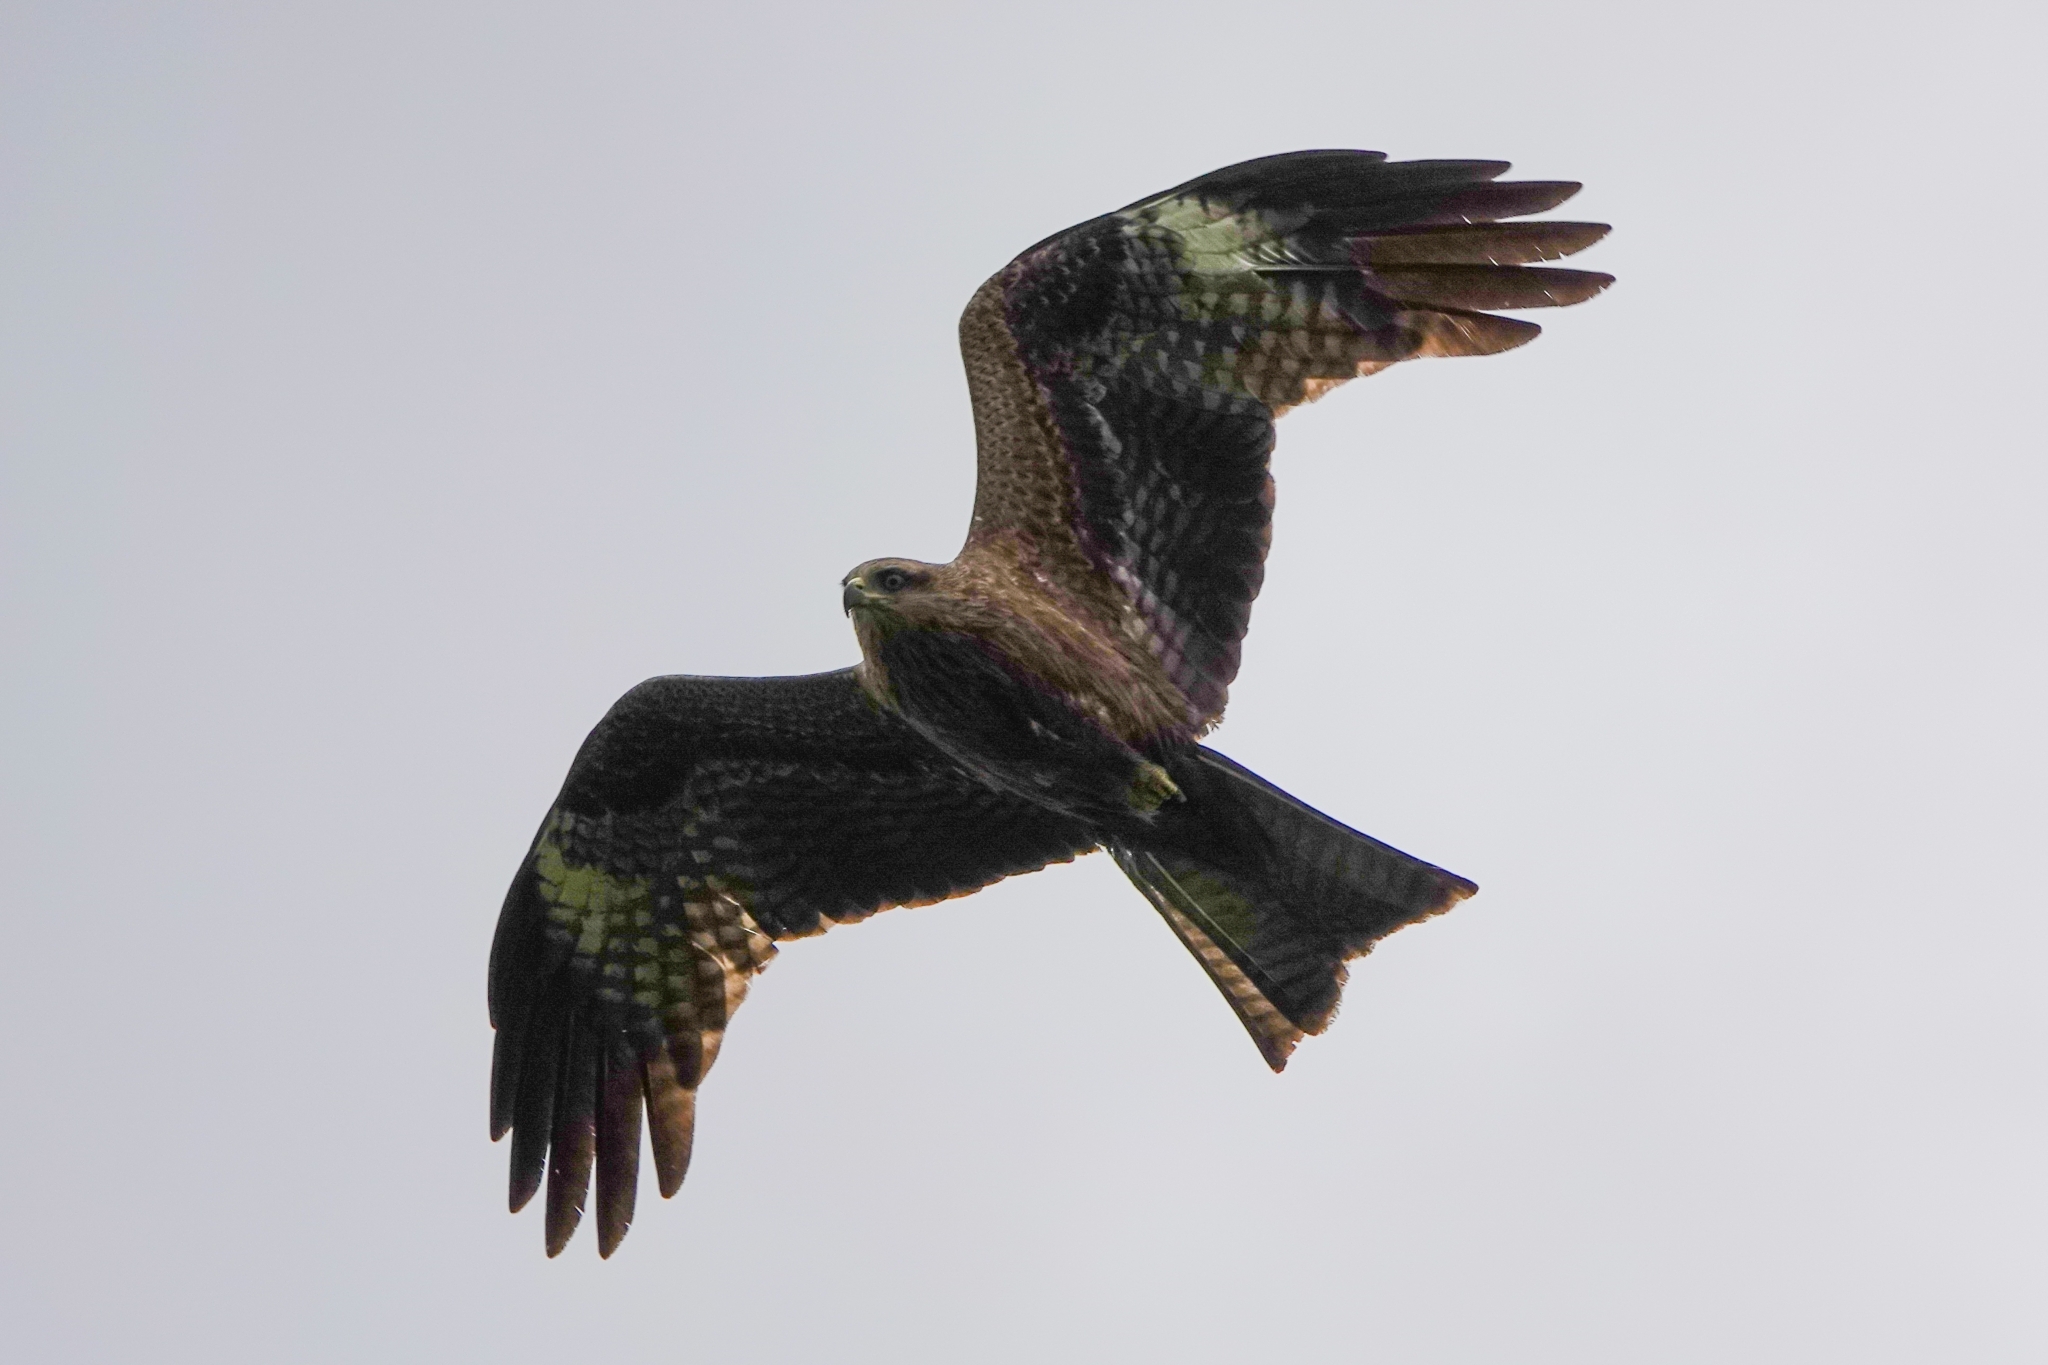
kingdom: Animalia
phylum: Chordata
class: Aves
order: Accipitriformes
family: Accipitridae
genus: Milvus
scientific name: Milvus migrans
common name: Black kite
